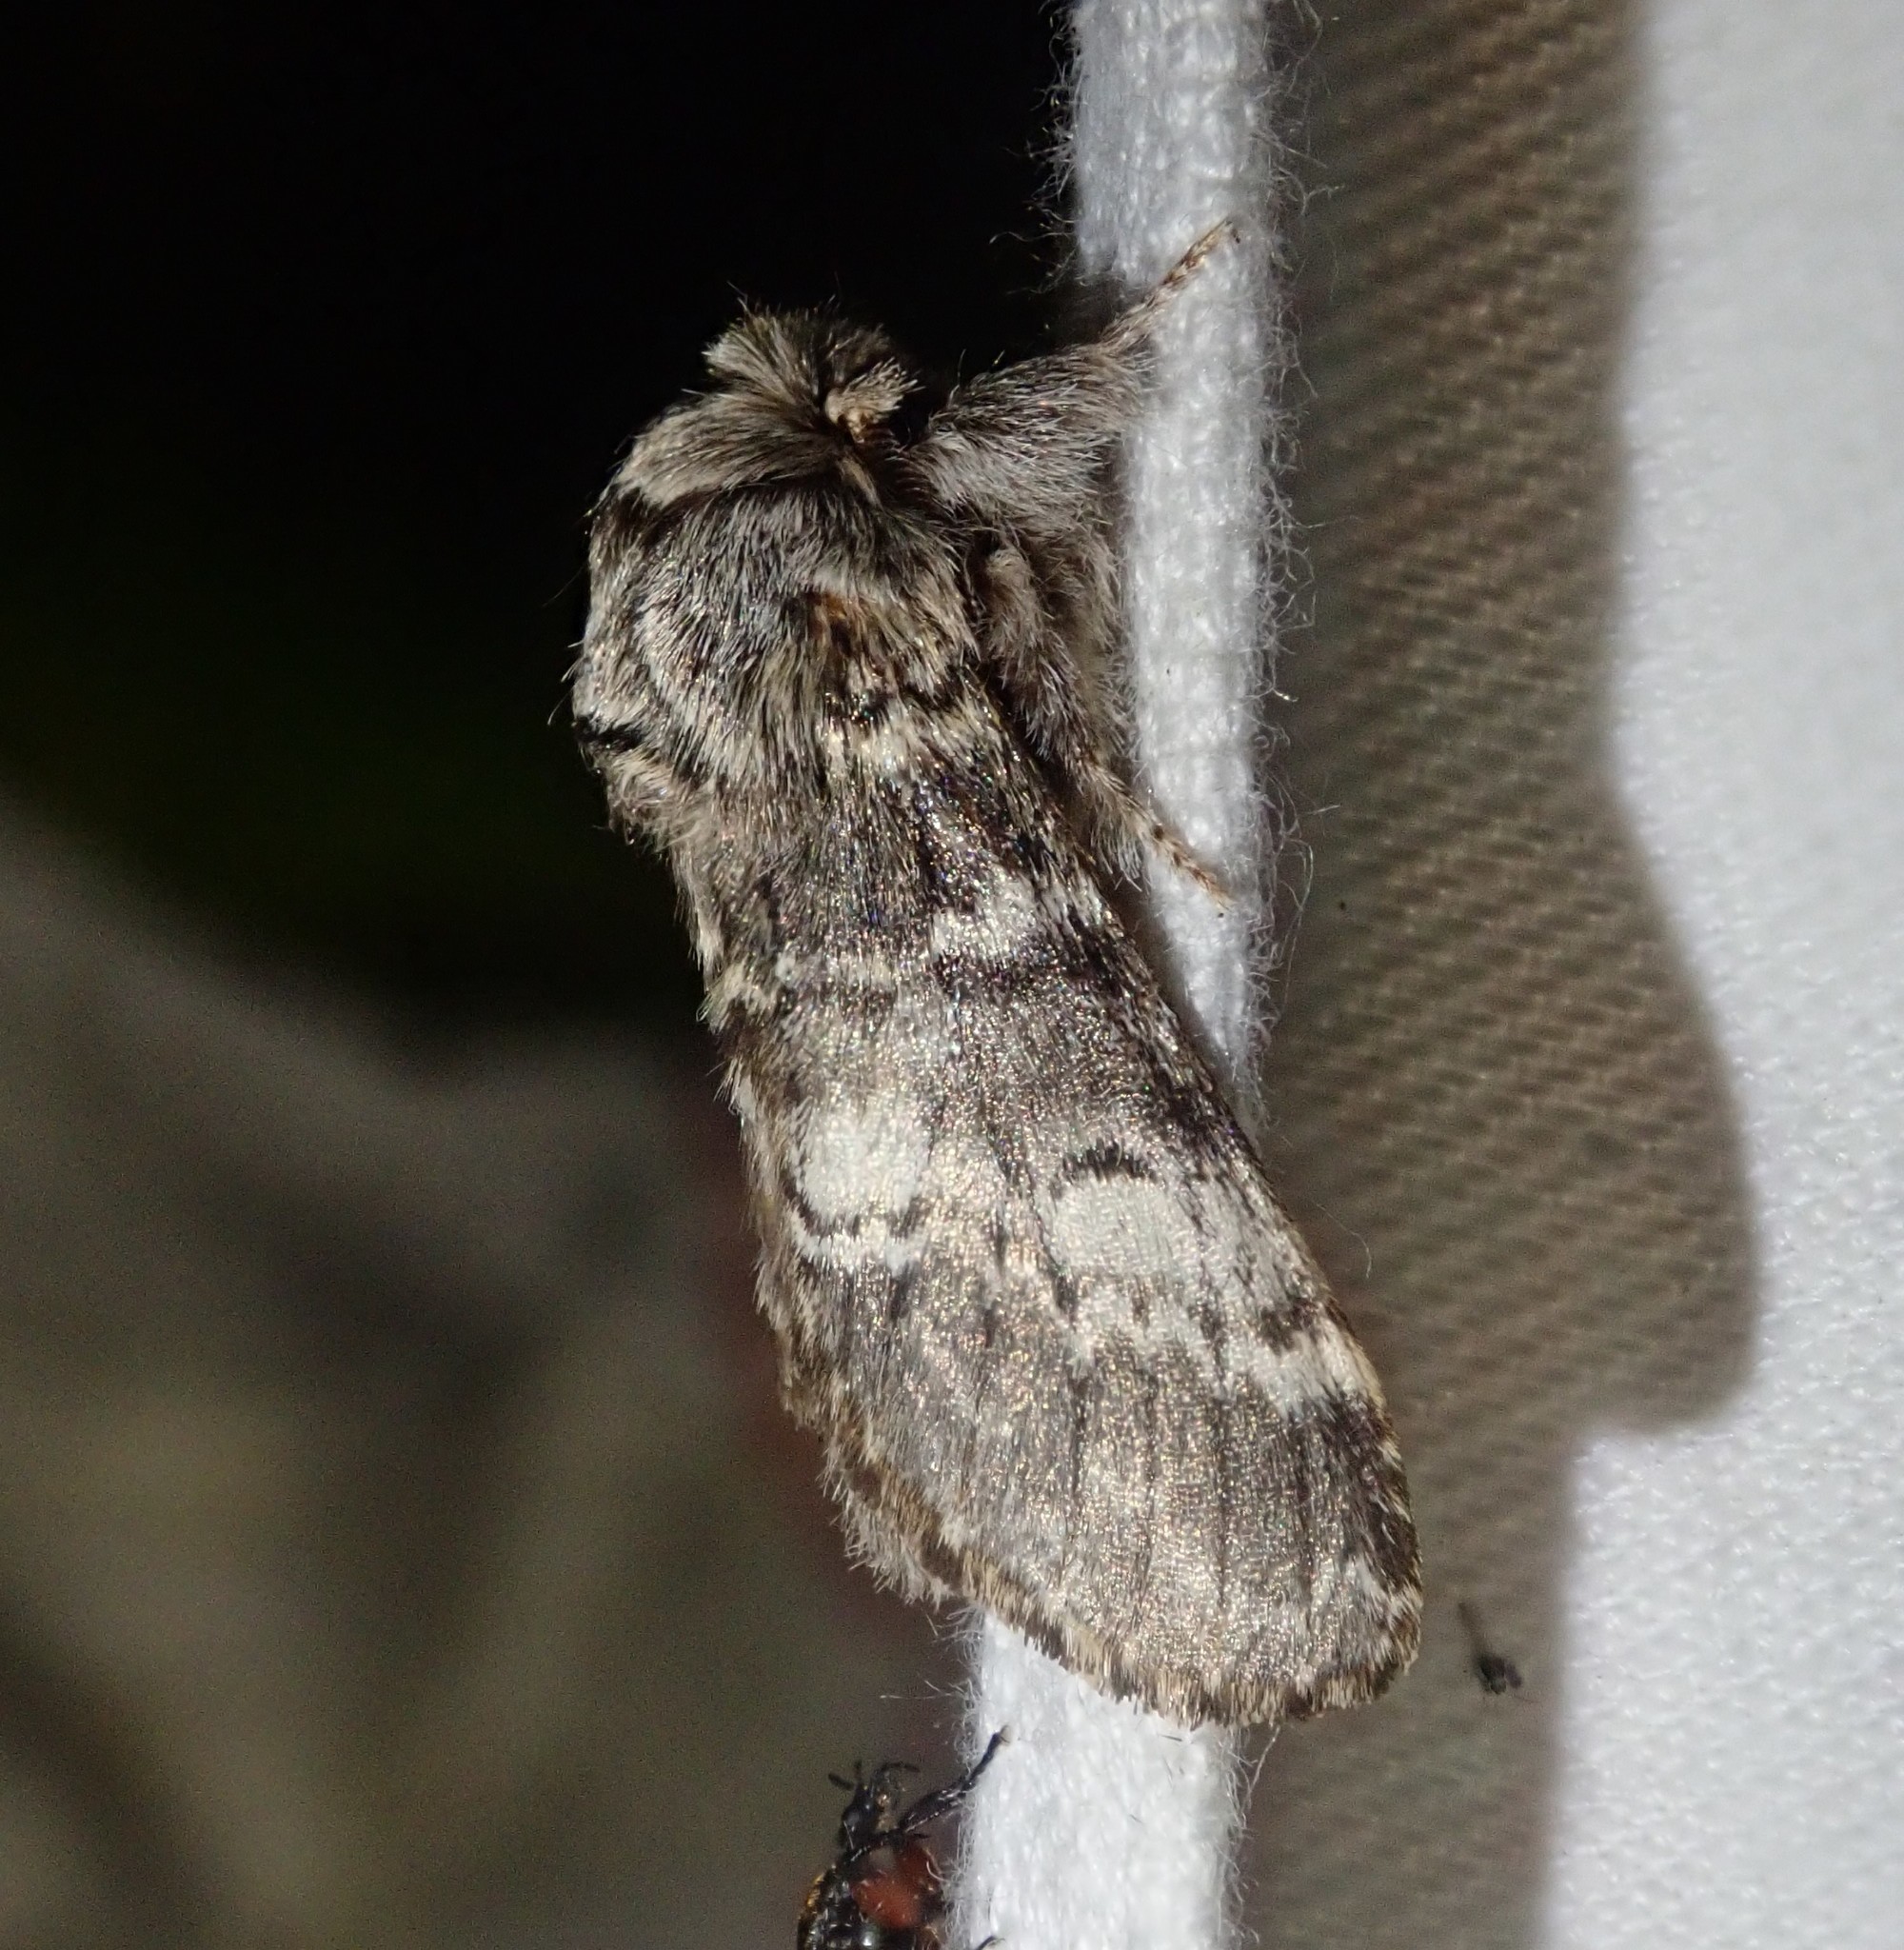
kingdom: Animalia
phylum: Arthropoda
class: Insecta
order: Lepidoptera
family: Notodontidae
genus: Drymonia
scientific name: Drymonia ruficornis
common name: Lunar marbled brown
